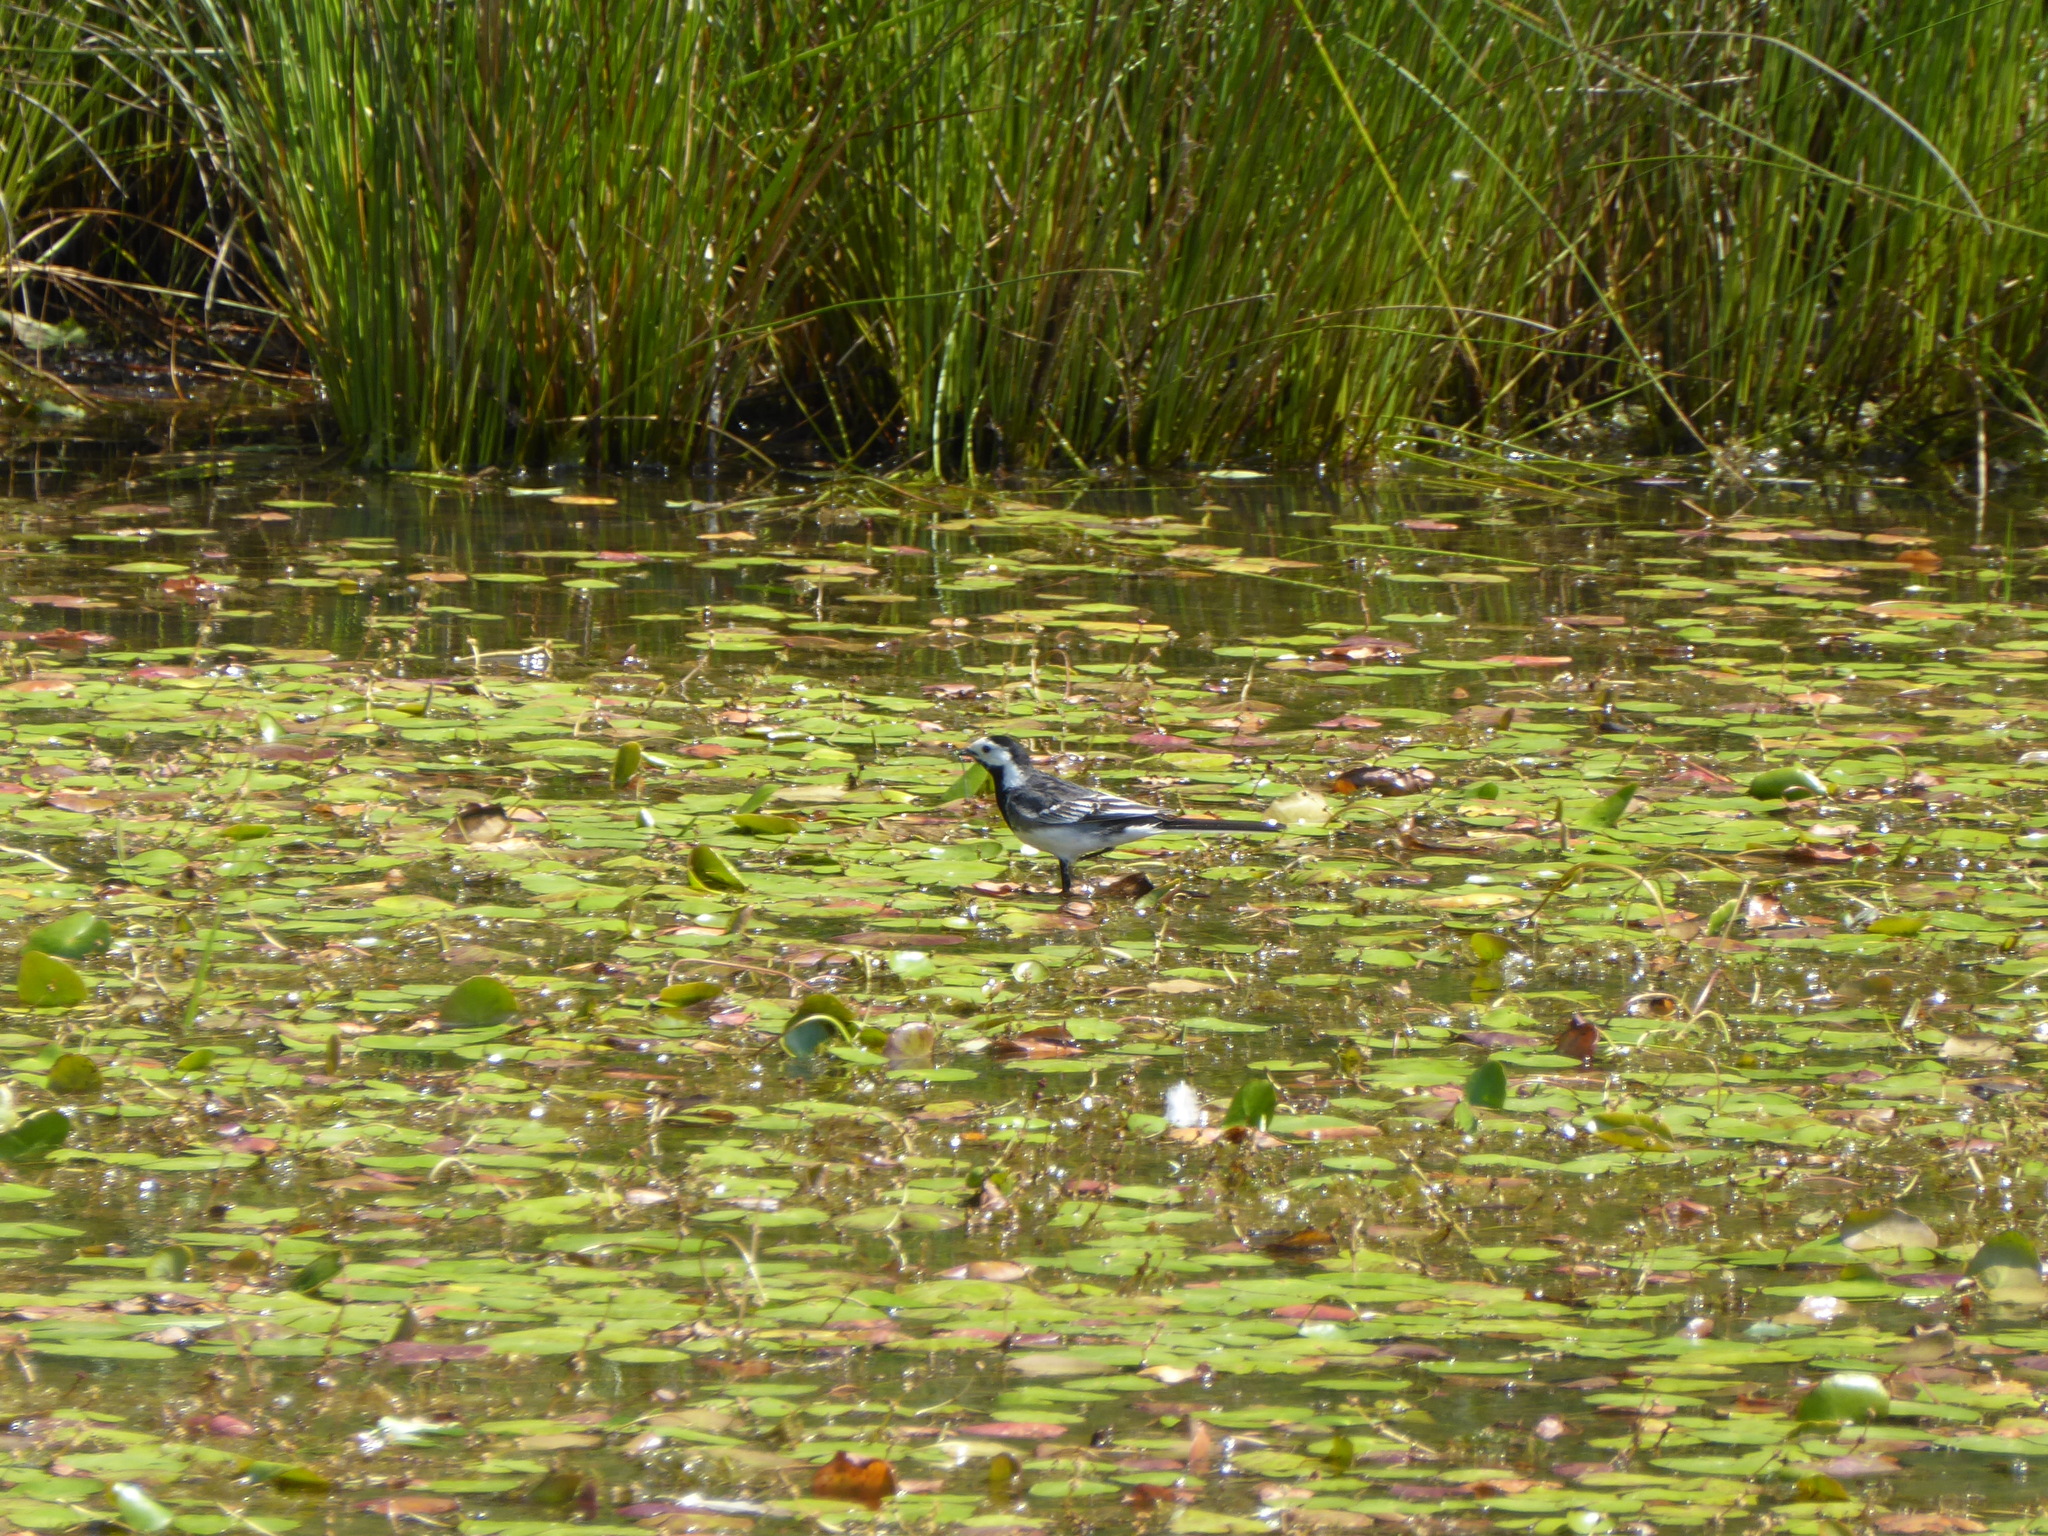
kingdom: Animalia
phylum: Chordata
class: Aves
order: Passeriformes
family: Motacillidae
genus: Motacilla
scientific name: Motacilla alba
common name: White wagtail
